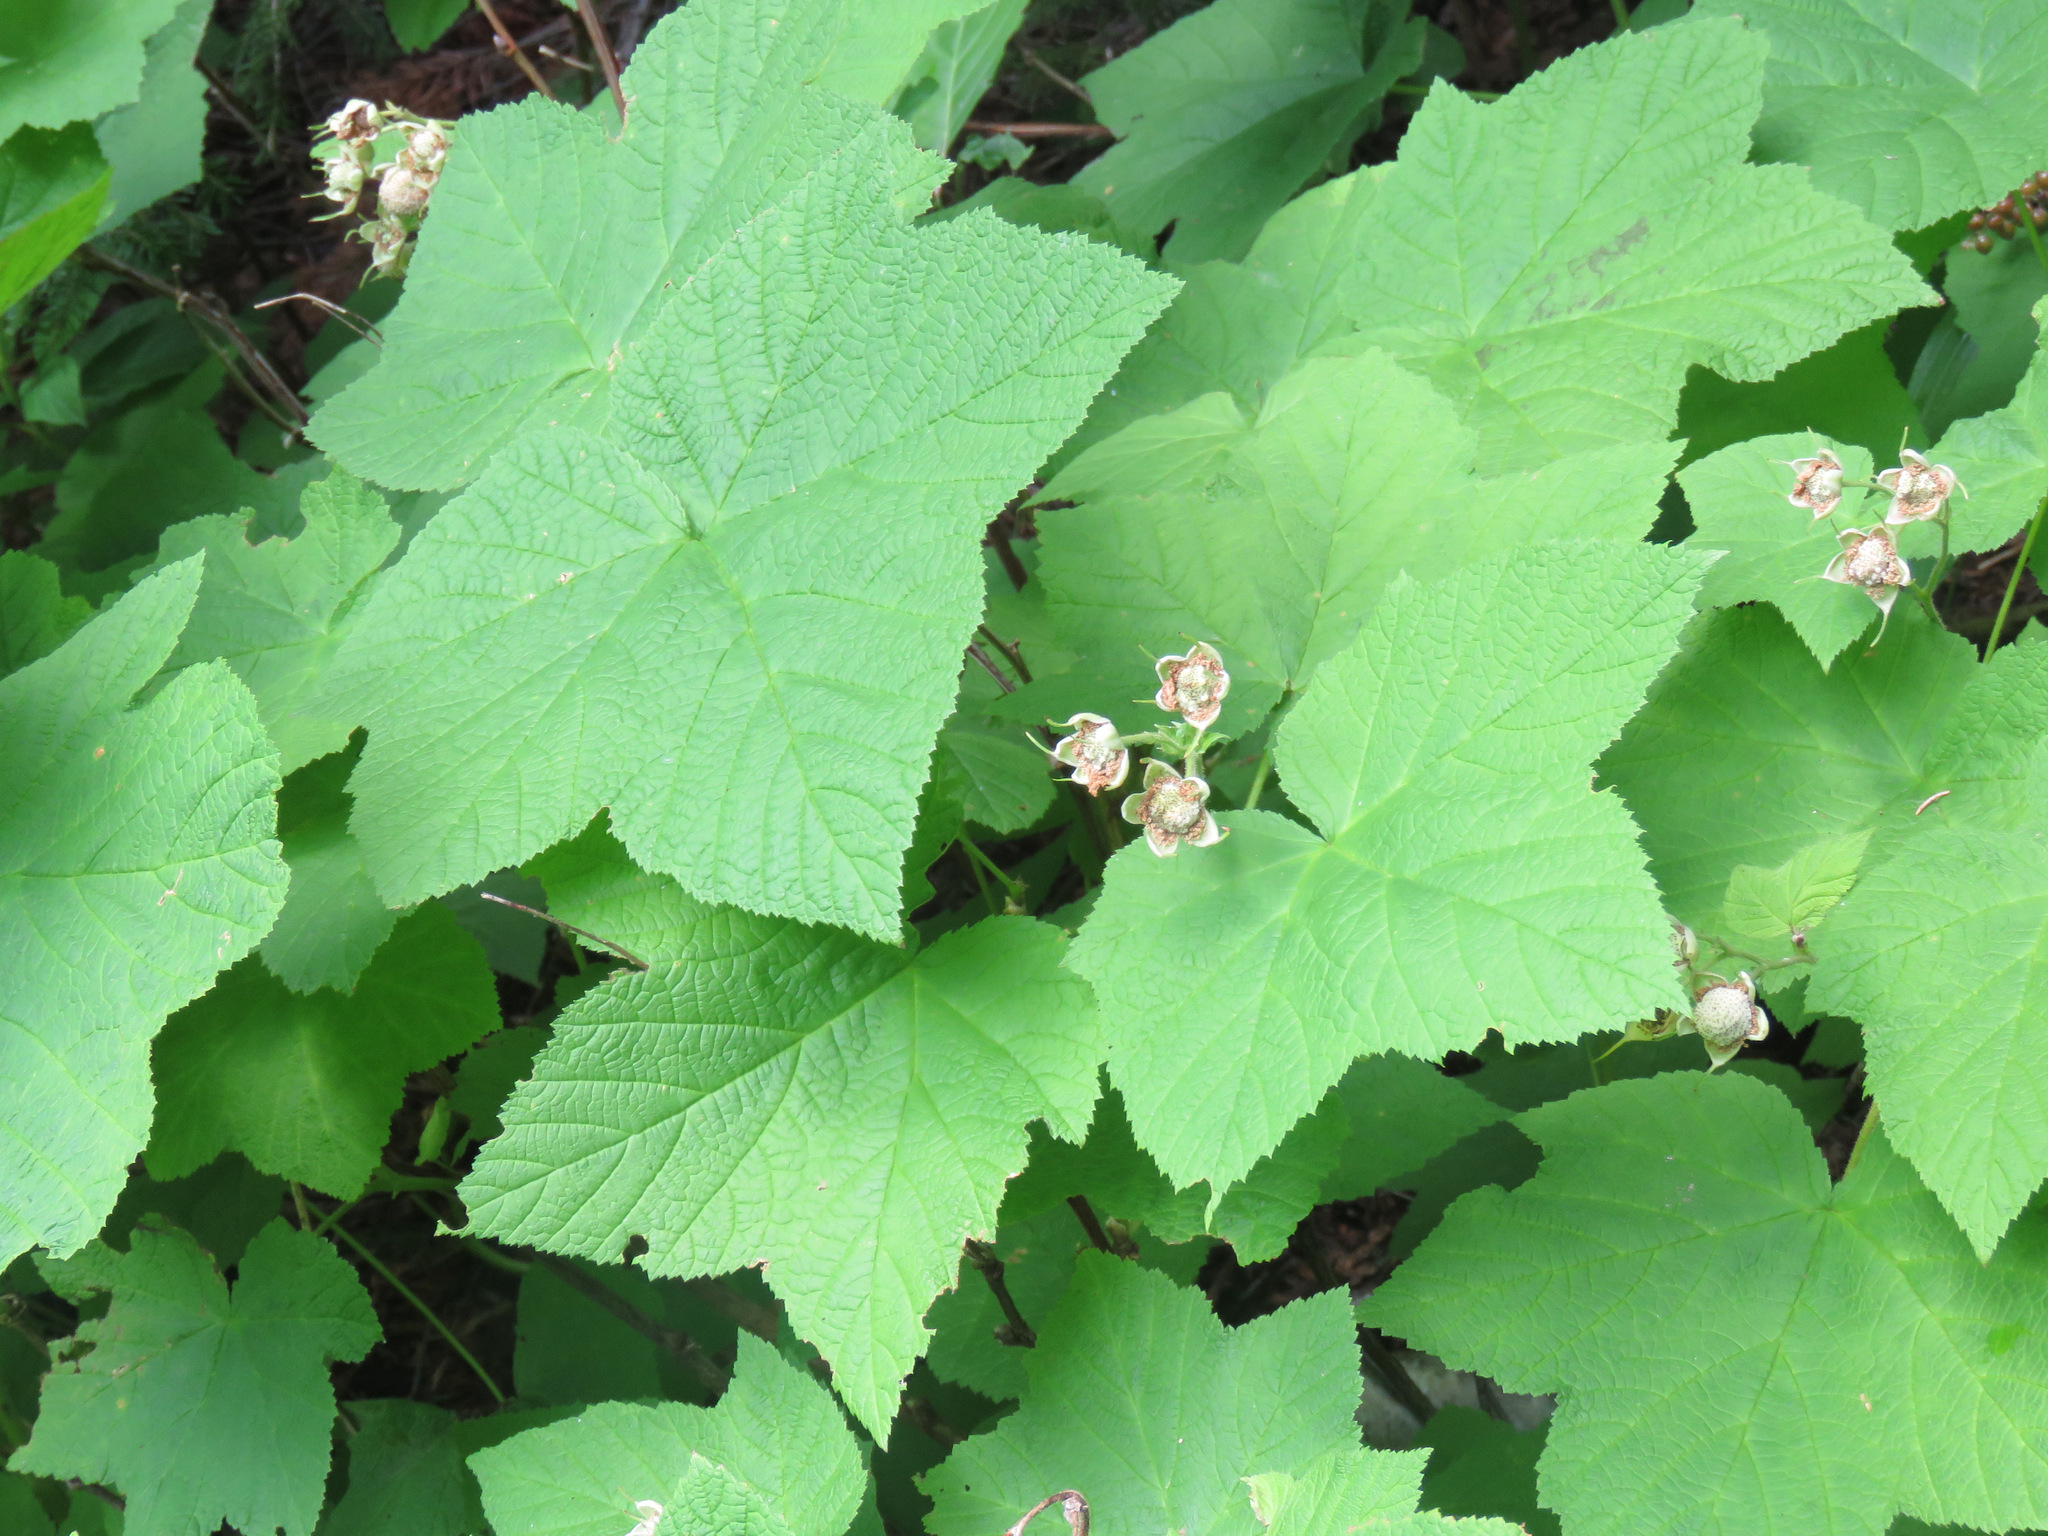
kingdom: Plantae
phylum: Tracheophyta
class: Magnoliopsida
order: Rosales
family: Rosaceae
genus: Rubus
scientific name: Rubus parviflorus
